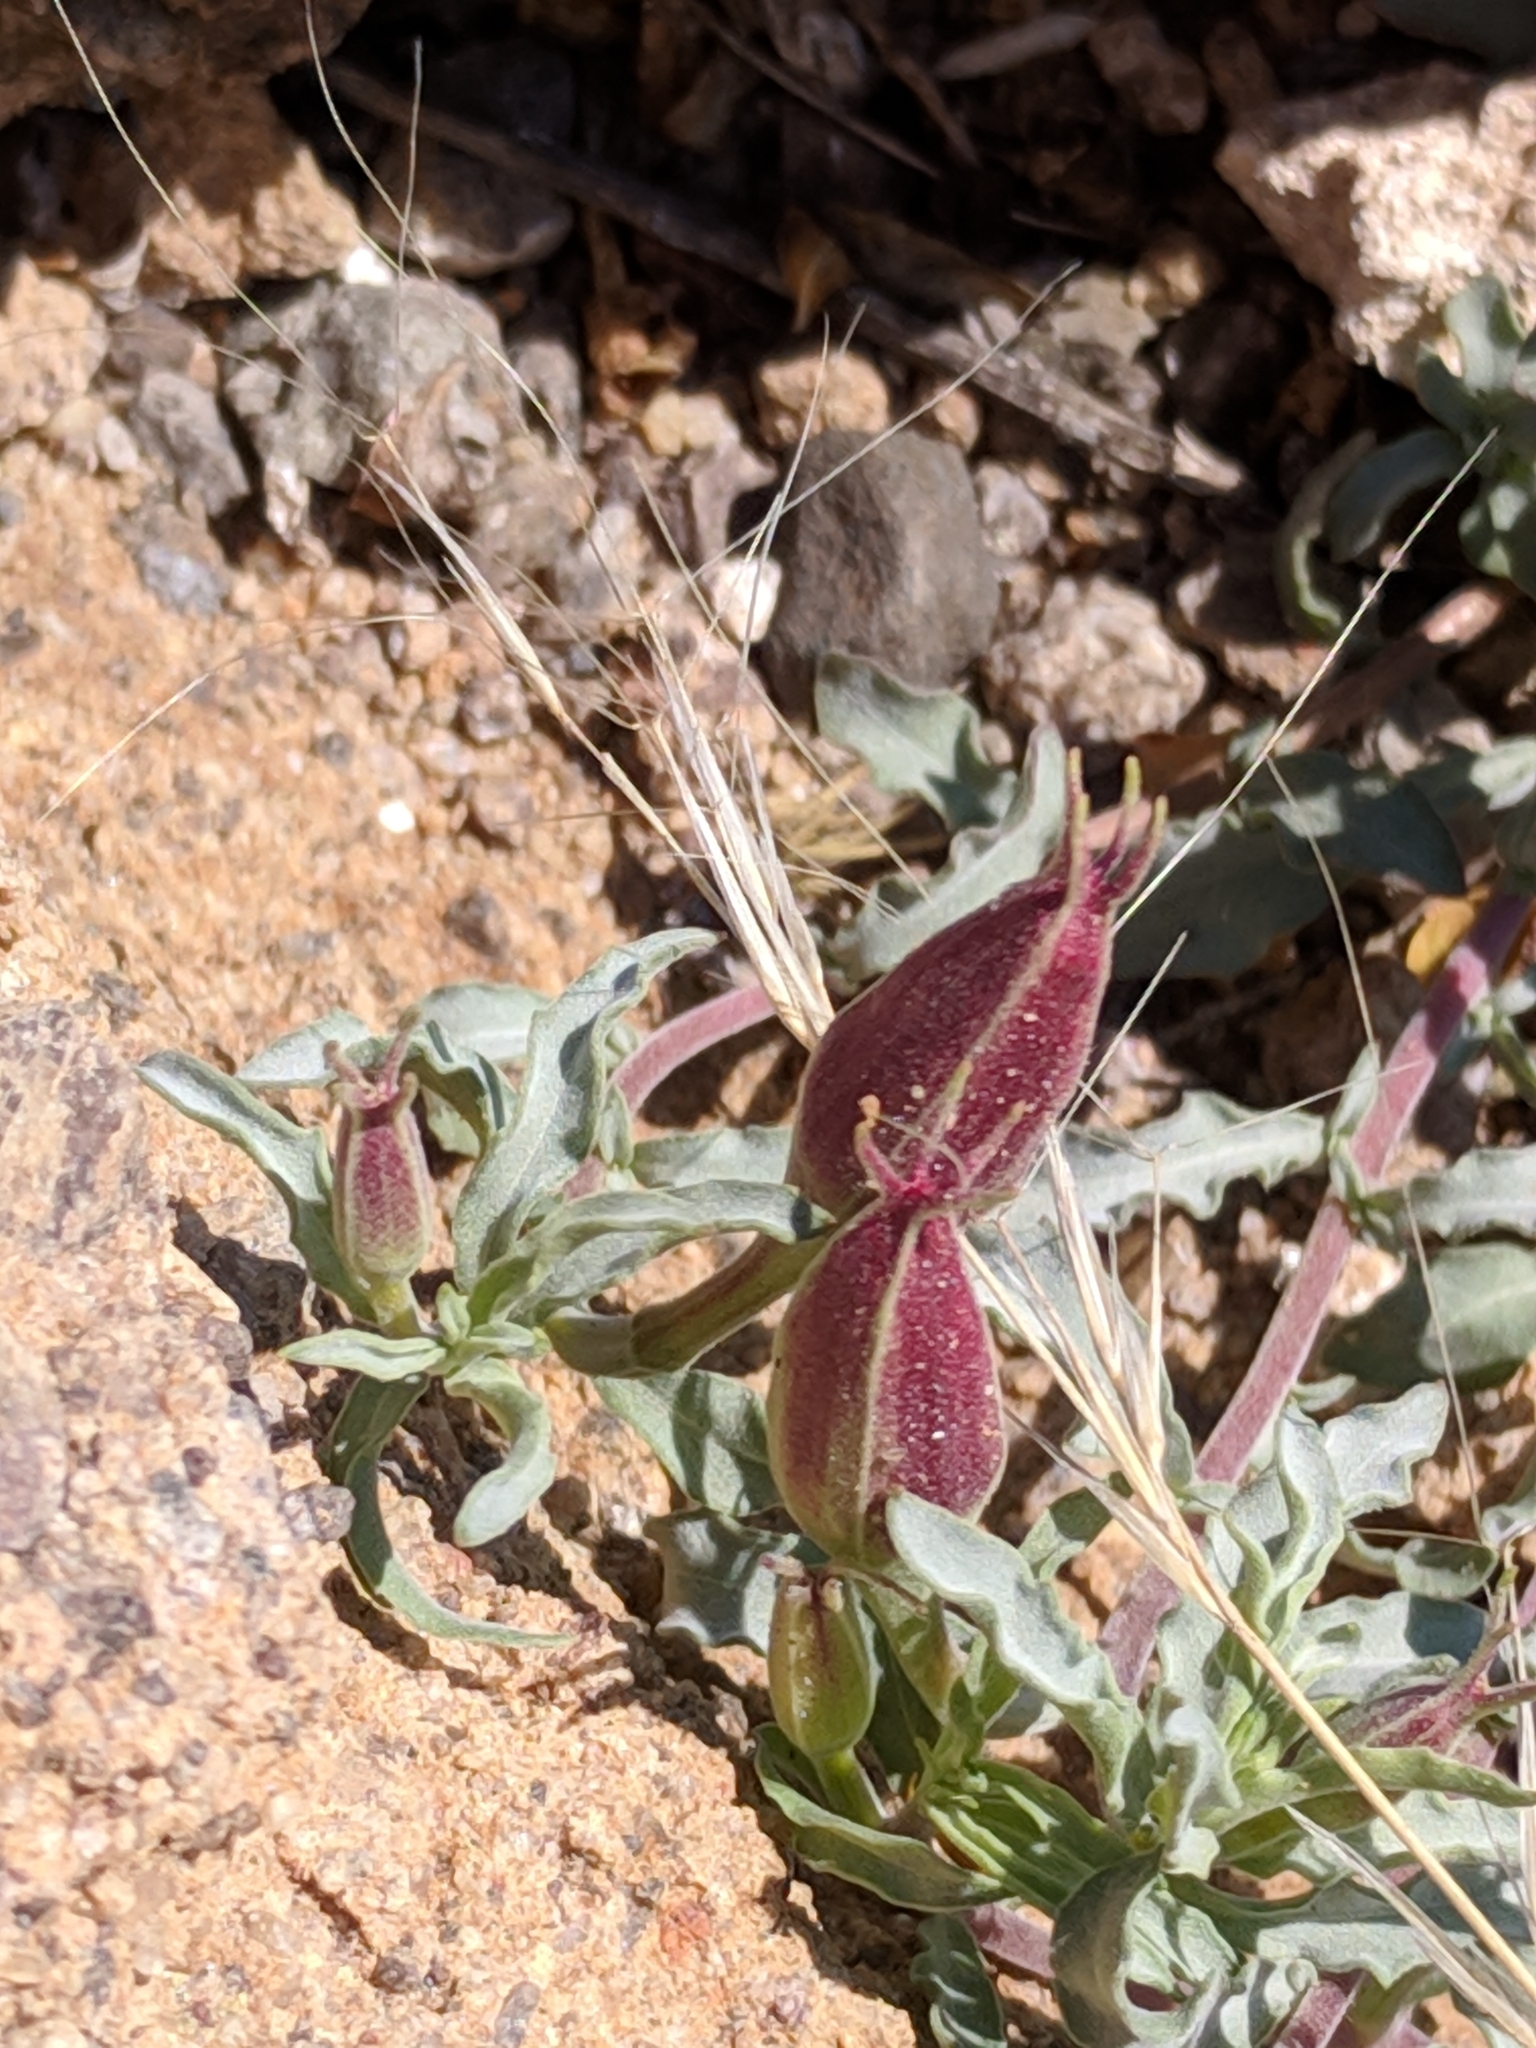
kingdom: Plantae
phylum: Tracheophyta
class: Magnoliopsida
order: Myrtales
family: Onagraceae
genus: Oenothera
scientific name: Oenothera lavandulifolia
